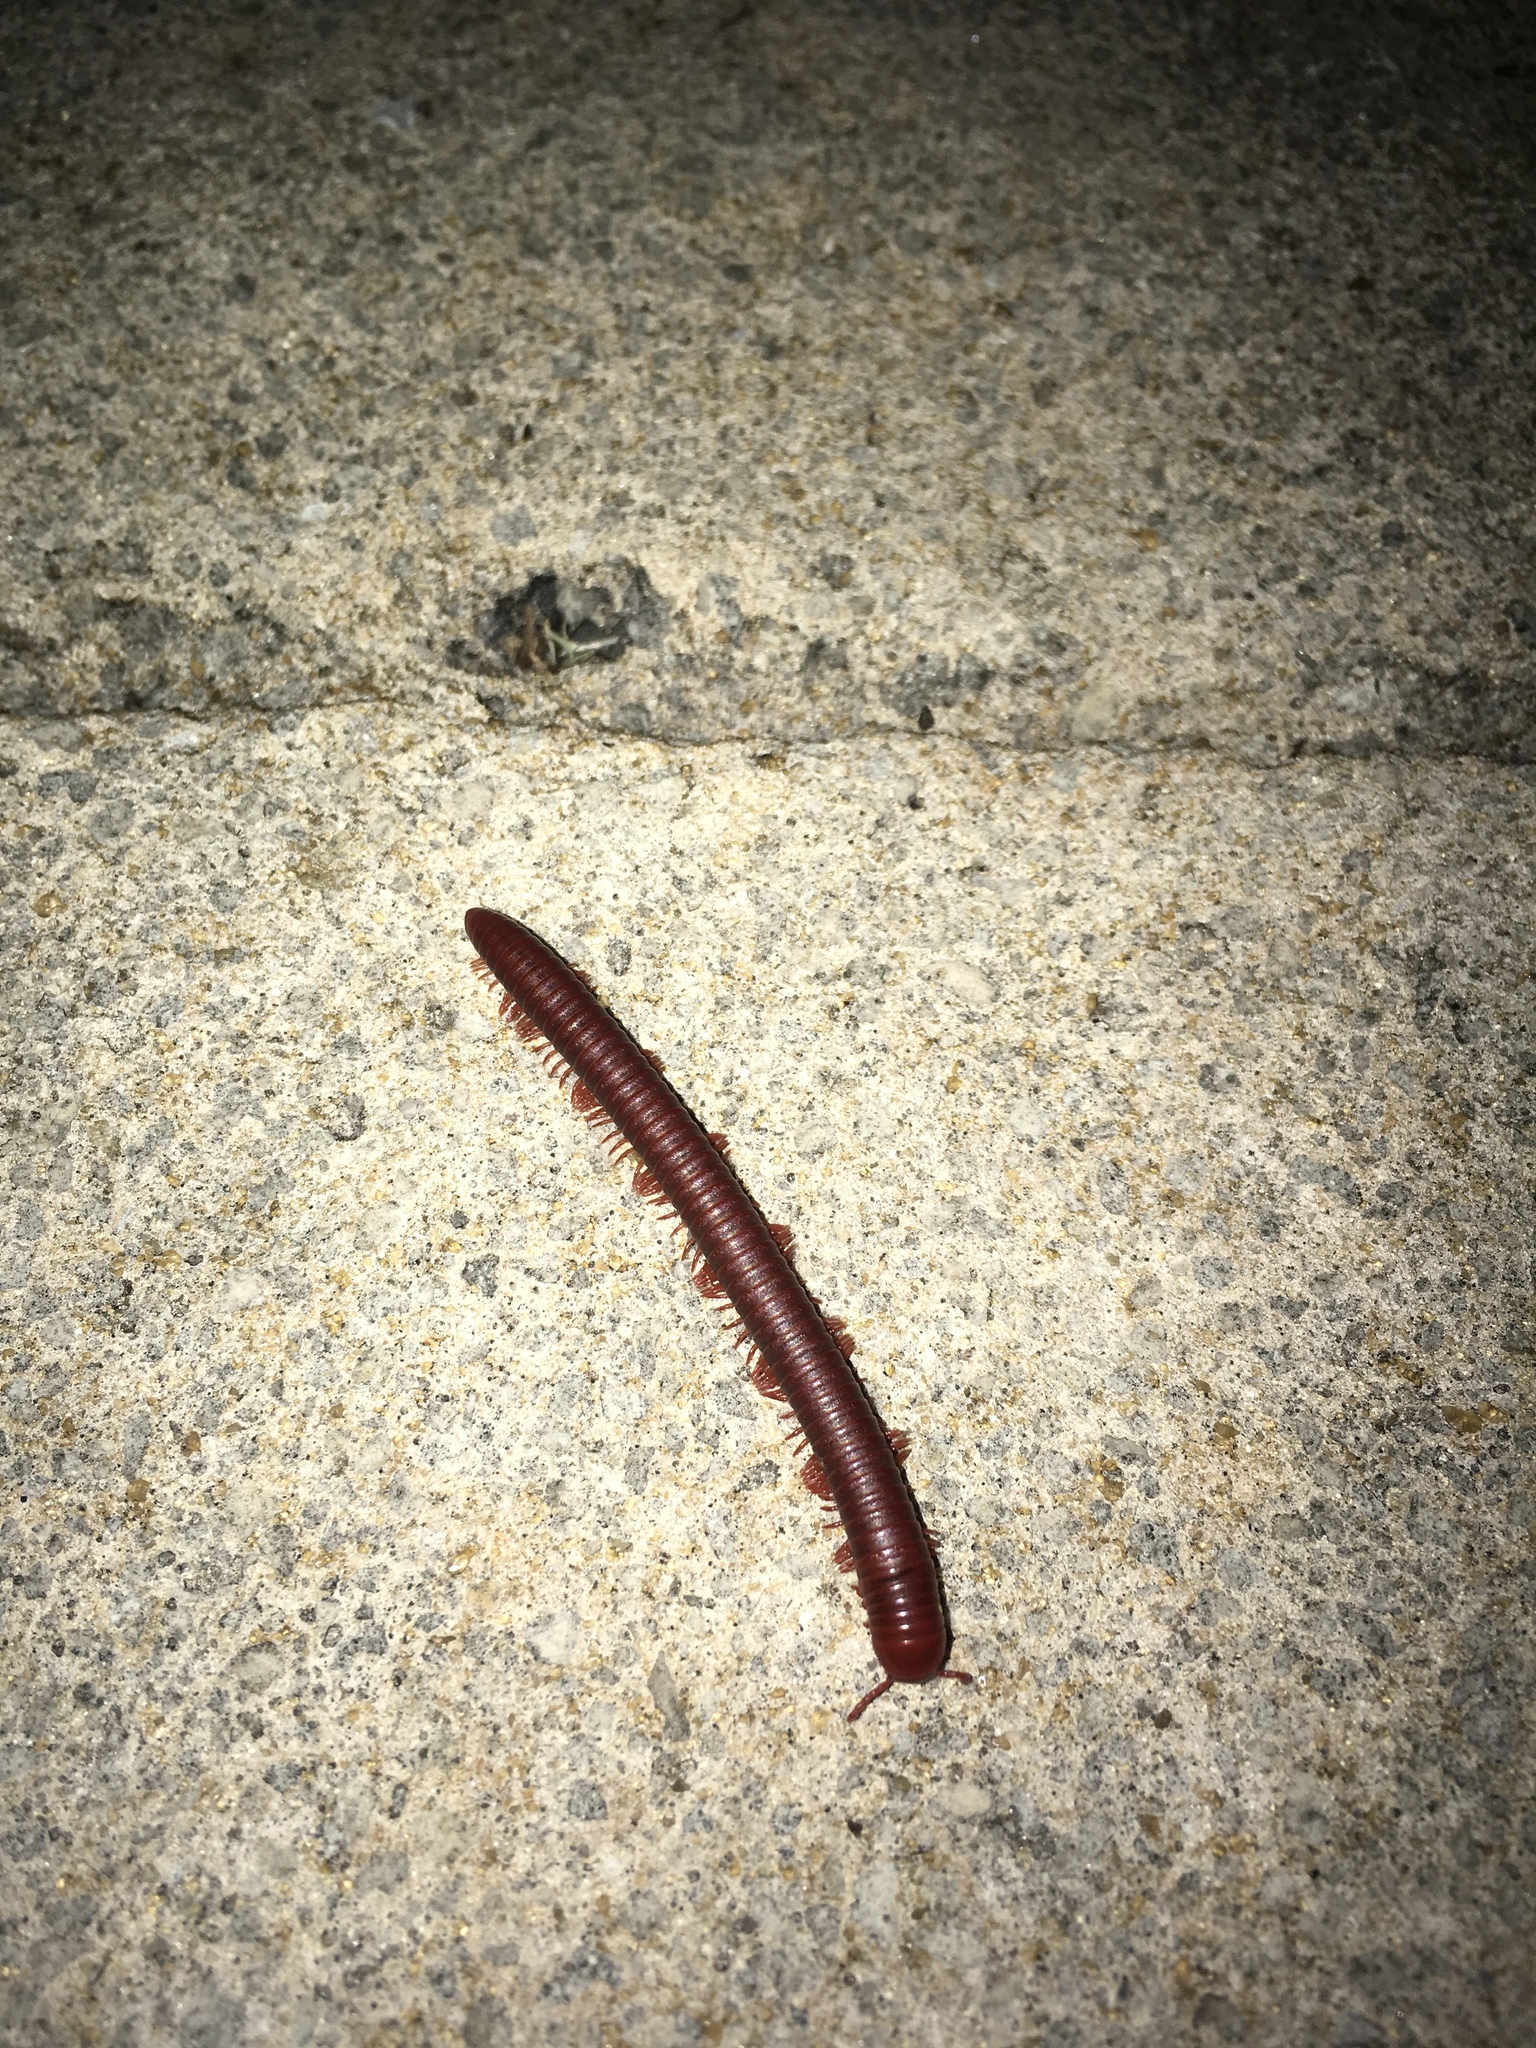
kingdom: Animalia
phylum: Arthropoda
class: Diplopoda
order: Spirobolida
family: Pachybolidae
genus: Trigoniulus
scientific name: Trigoniulus corallinus
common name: Millipede
